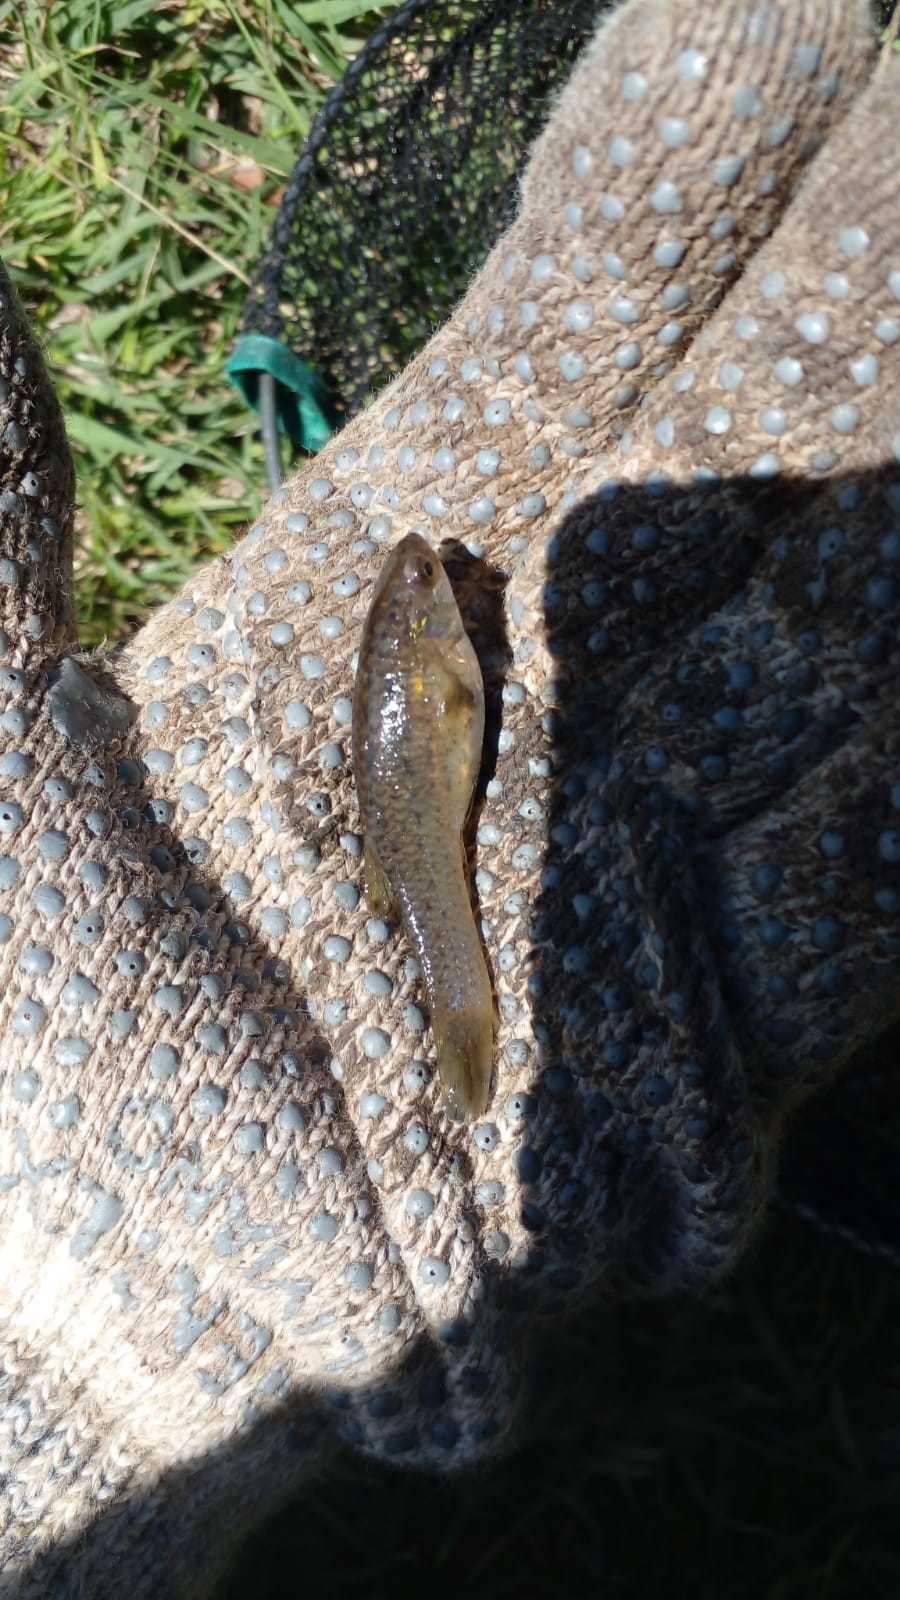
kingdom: Animalia
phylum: Chordata
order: Cyprinodontiformes
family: Anablepidae
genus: Jenynsia
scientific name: Jenynsia lineata
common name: Onesided livebearer
